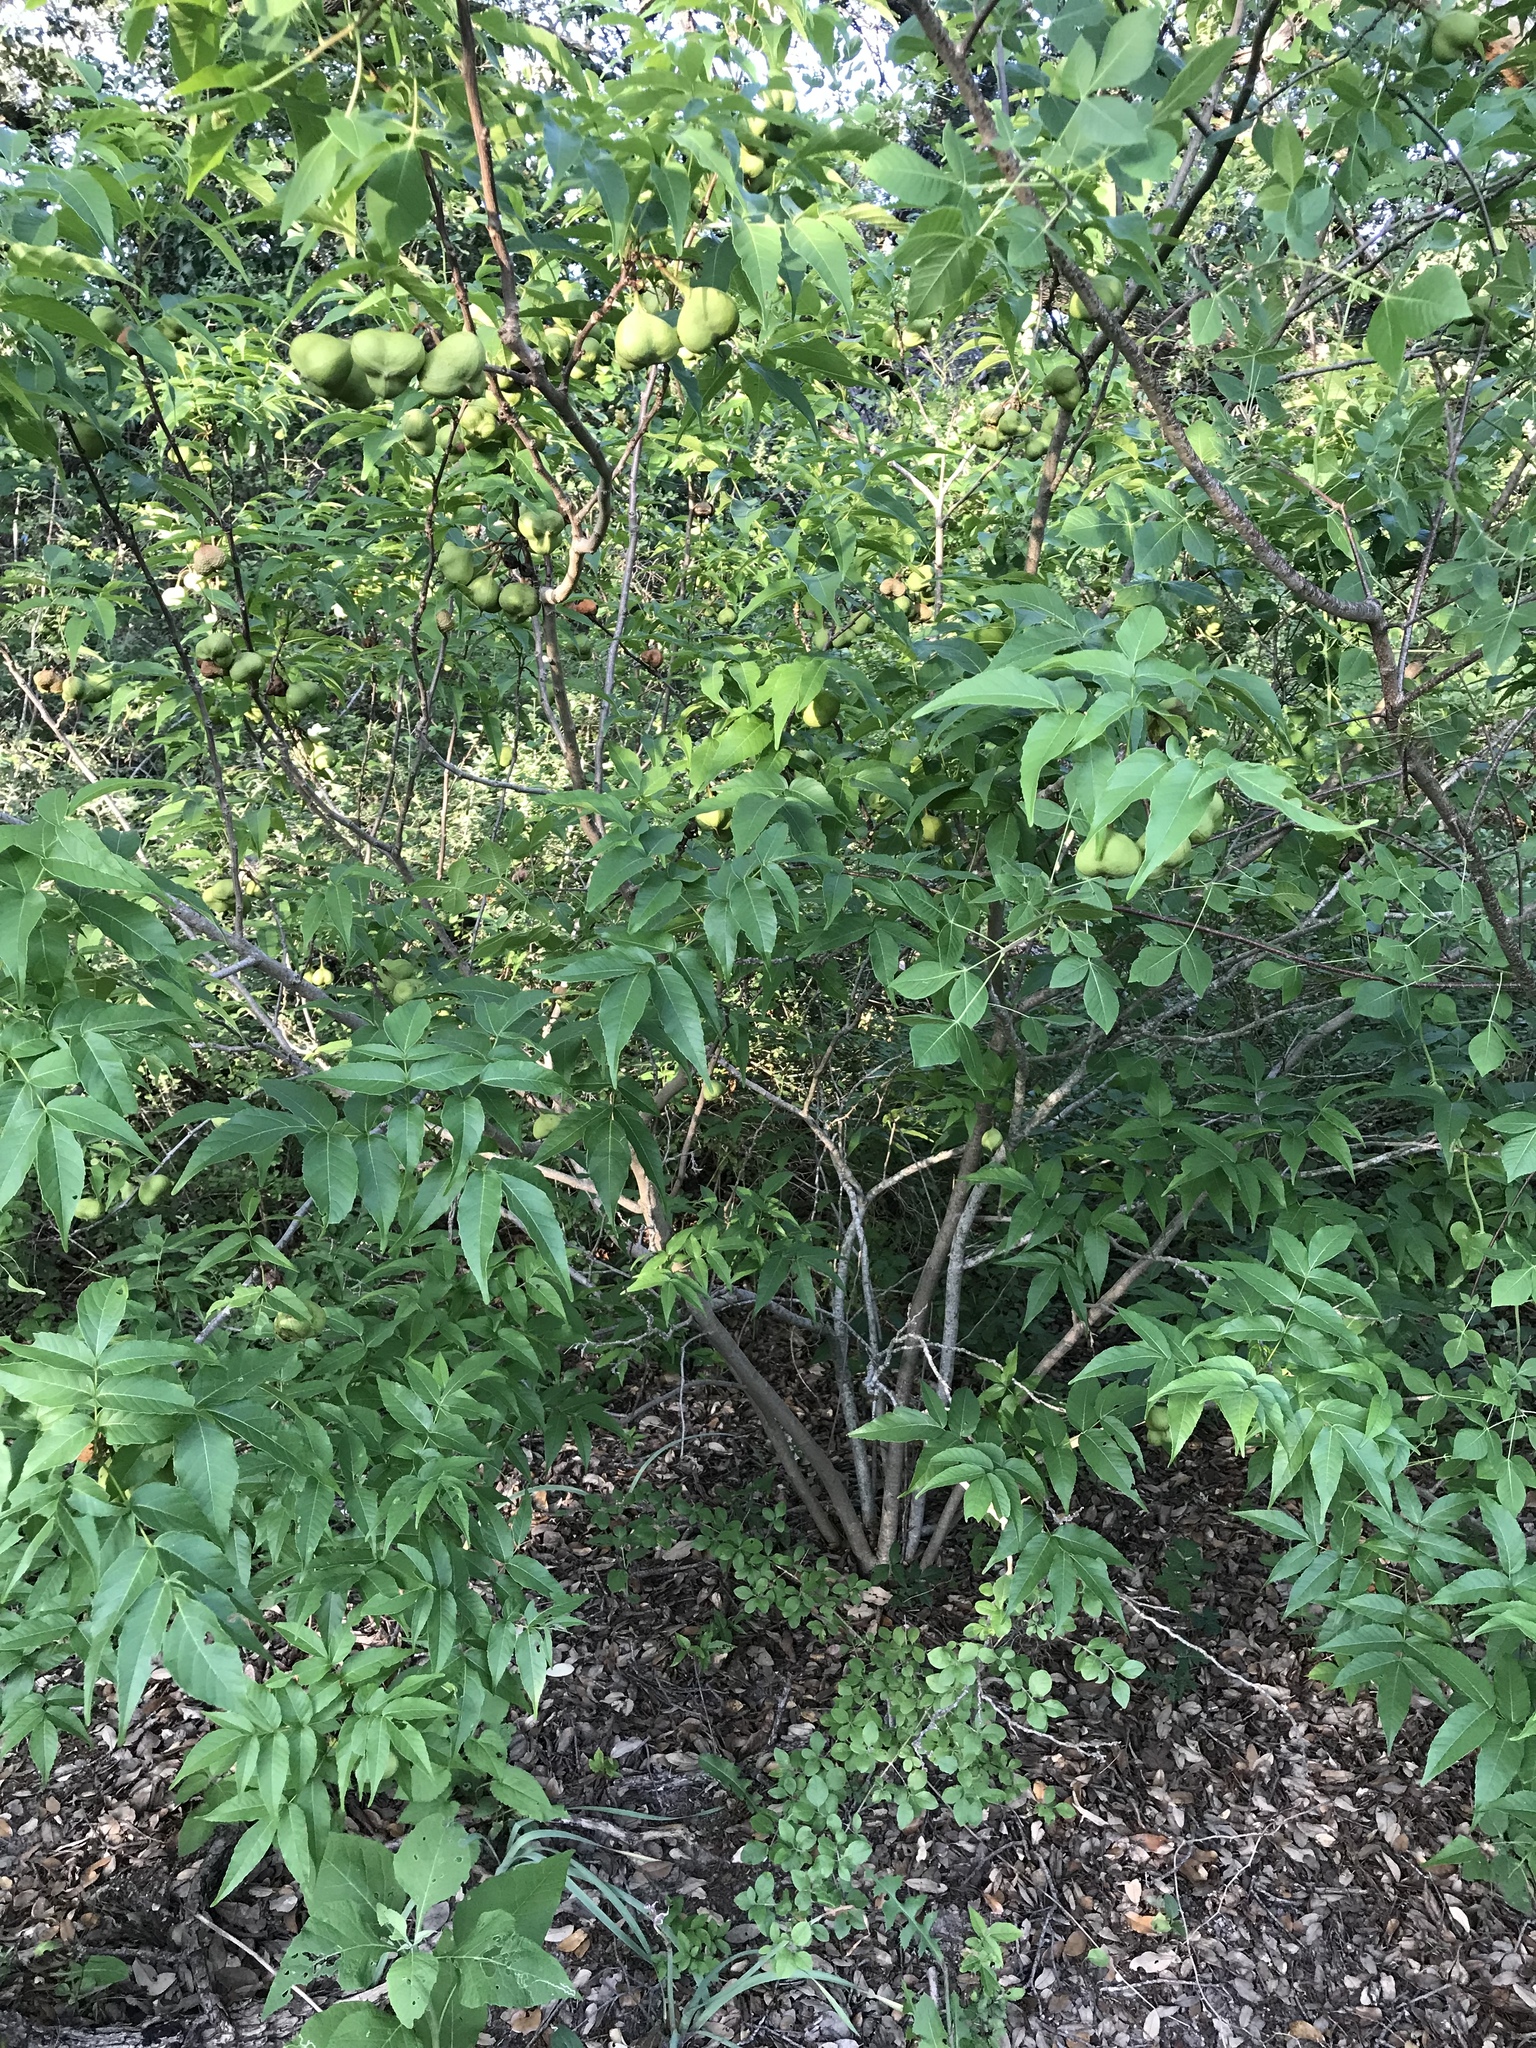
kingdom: Plantae
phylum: Tracheophyta
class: Magnoliopsida
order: Sapindales
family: Sapindaceae
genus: Ungnadia
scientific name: Ungnadia speciosa
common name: Texas-buckeye
